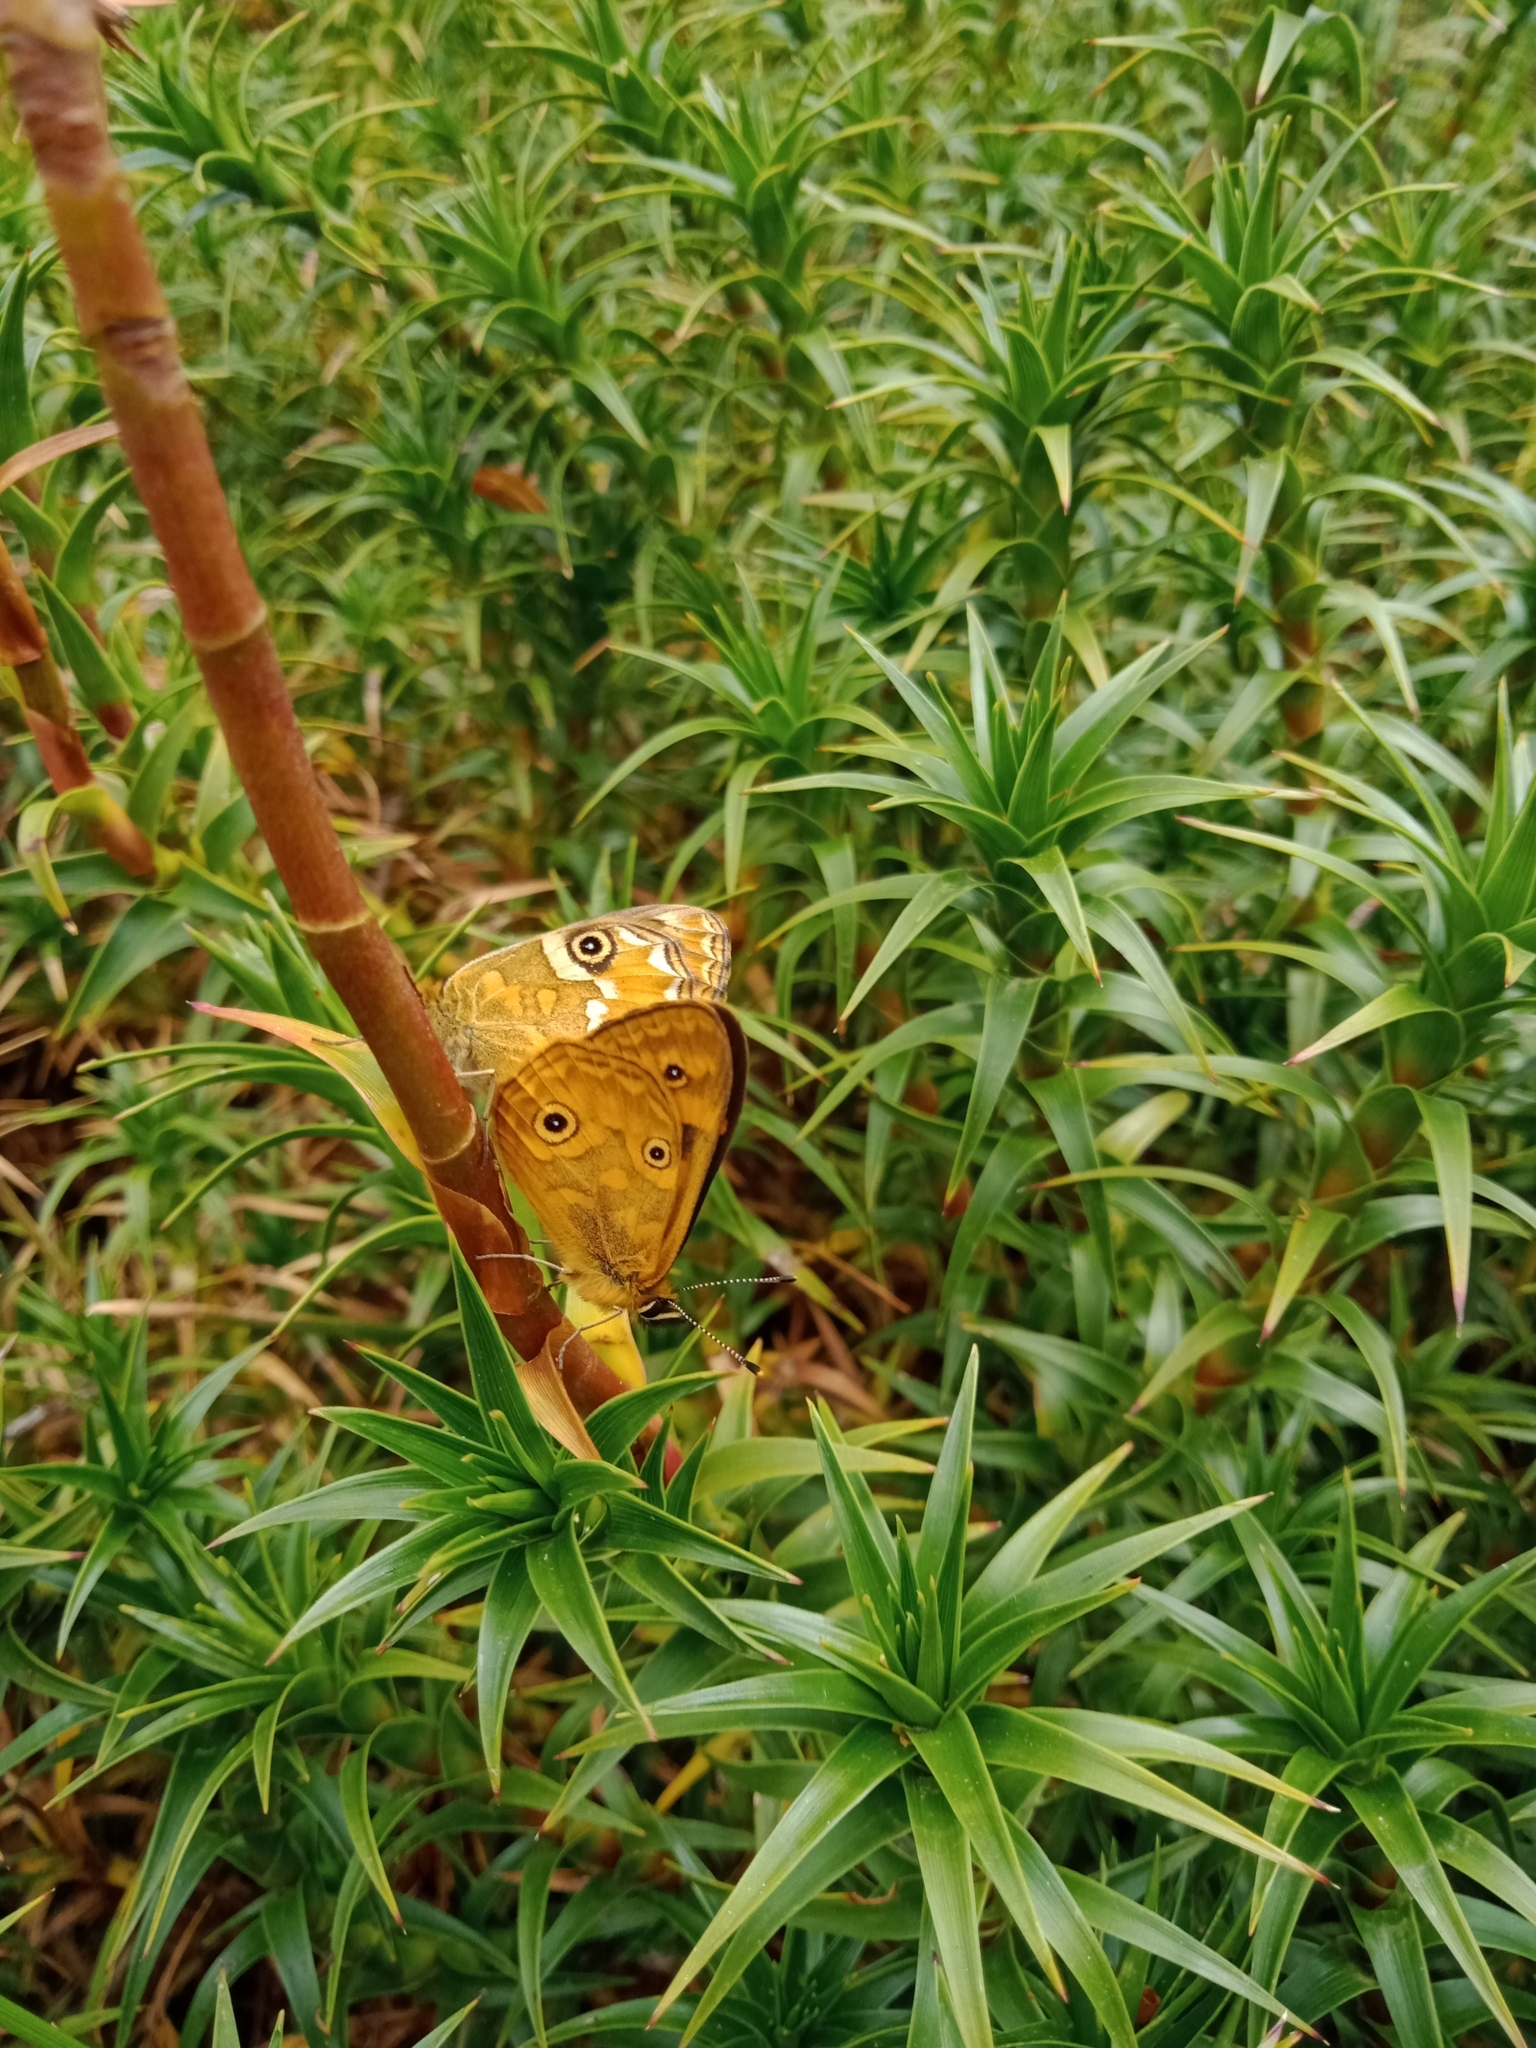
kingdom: Animalia
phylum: Arthropoda
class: Insecta
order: Lepidoptera
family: Nymphalidae
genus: Oreixenica
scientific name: Oreixenica correae
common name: Correa brown
